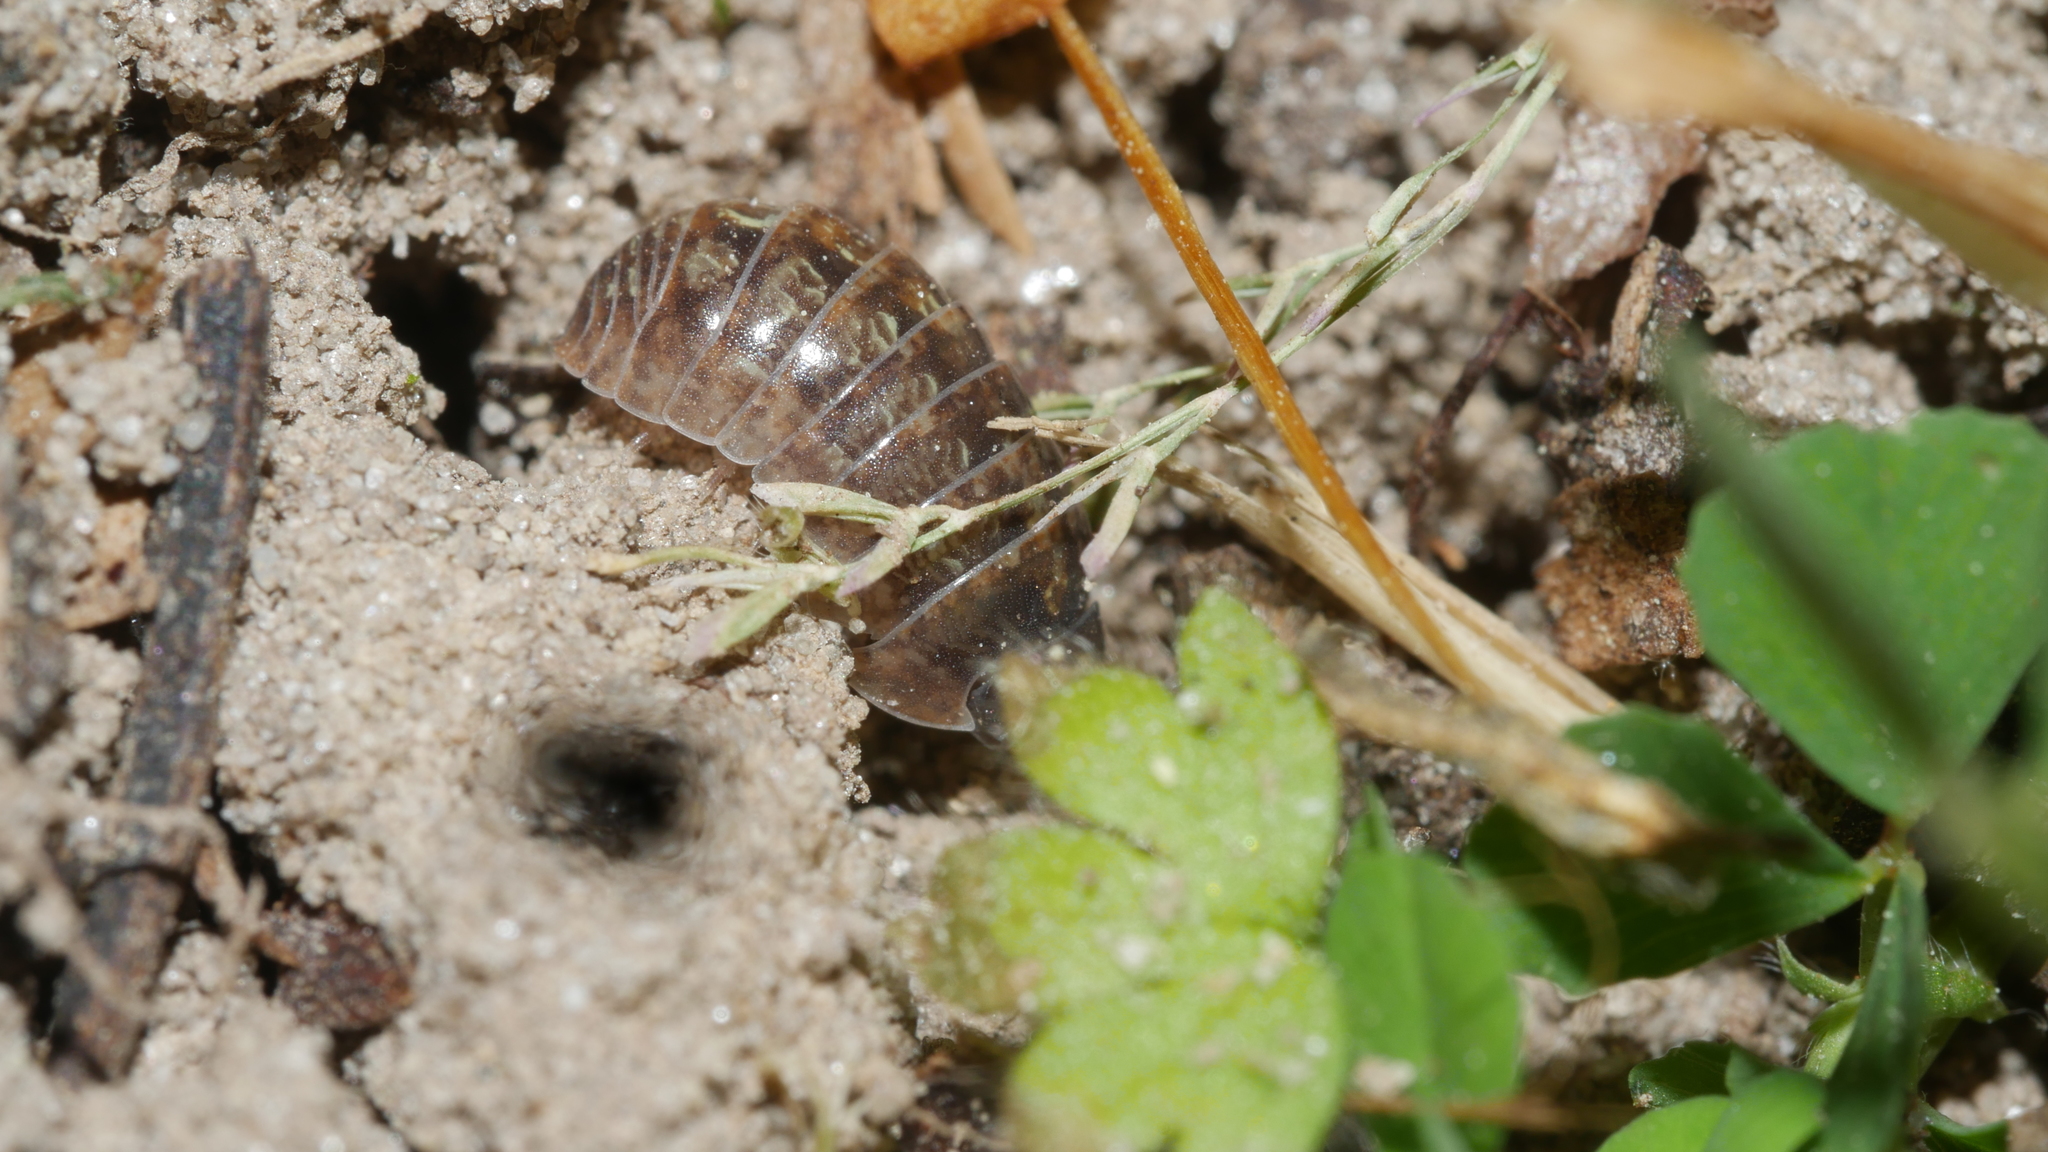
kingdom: Animalia
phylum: Arthropoda
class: Malacostraca
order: Isopoda
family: Armadillidiidae
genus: Armadillidium
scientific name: Armadillidium vulgare
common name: Common pill woodlouse
